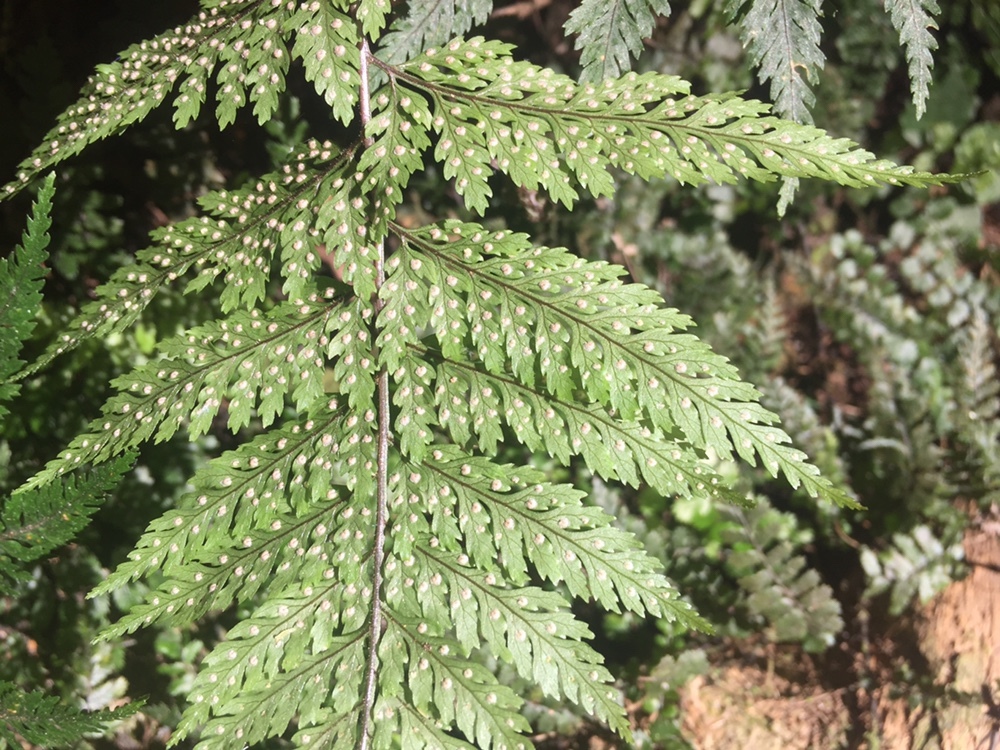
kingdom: Plantae
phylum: Tracheophyta
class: Polypodiopsida
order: Polypodiales
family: Dryopteridaceae
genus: Parapolystichum
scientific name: Parapolystichum glabellum
